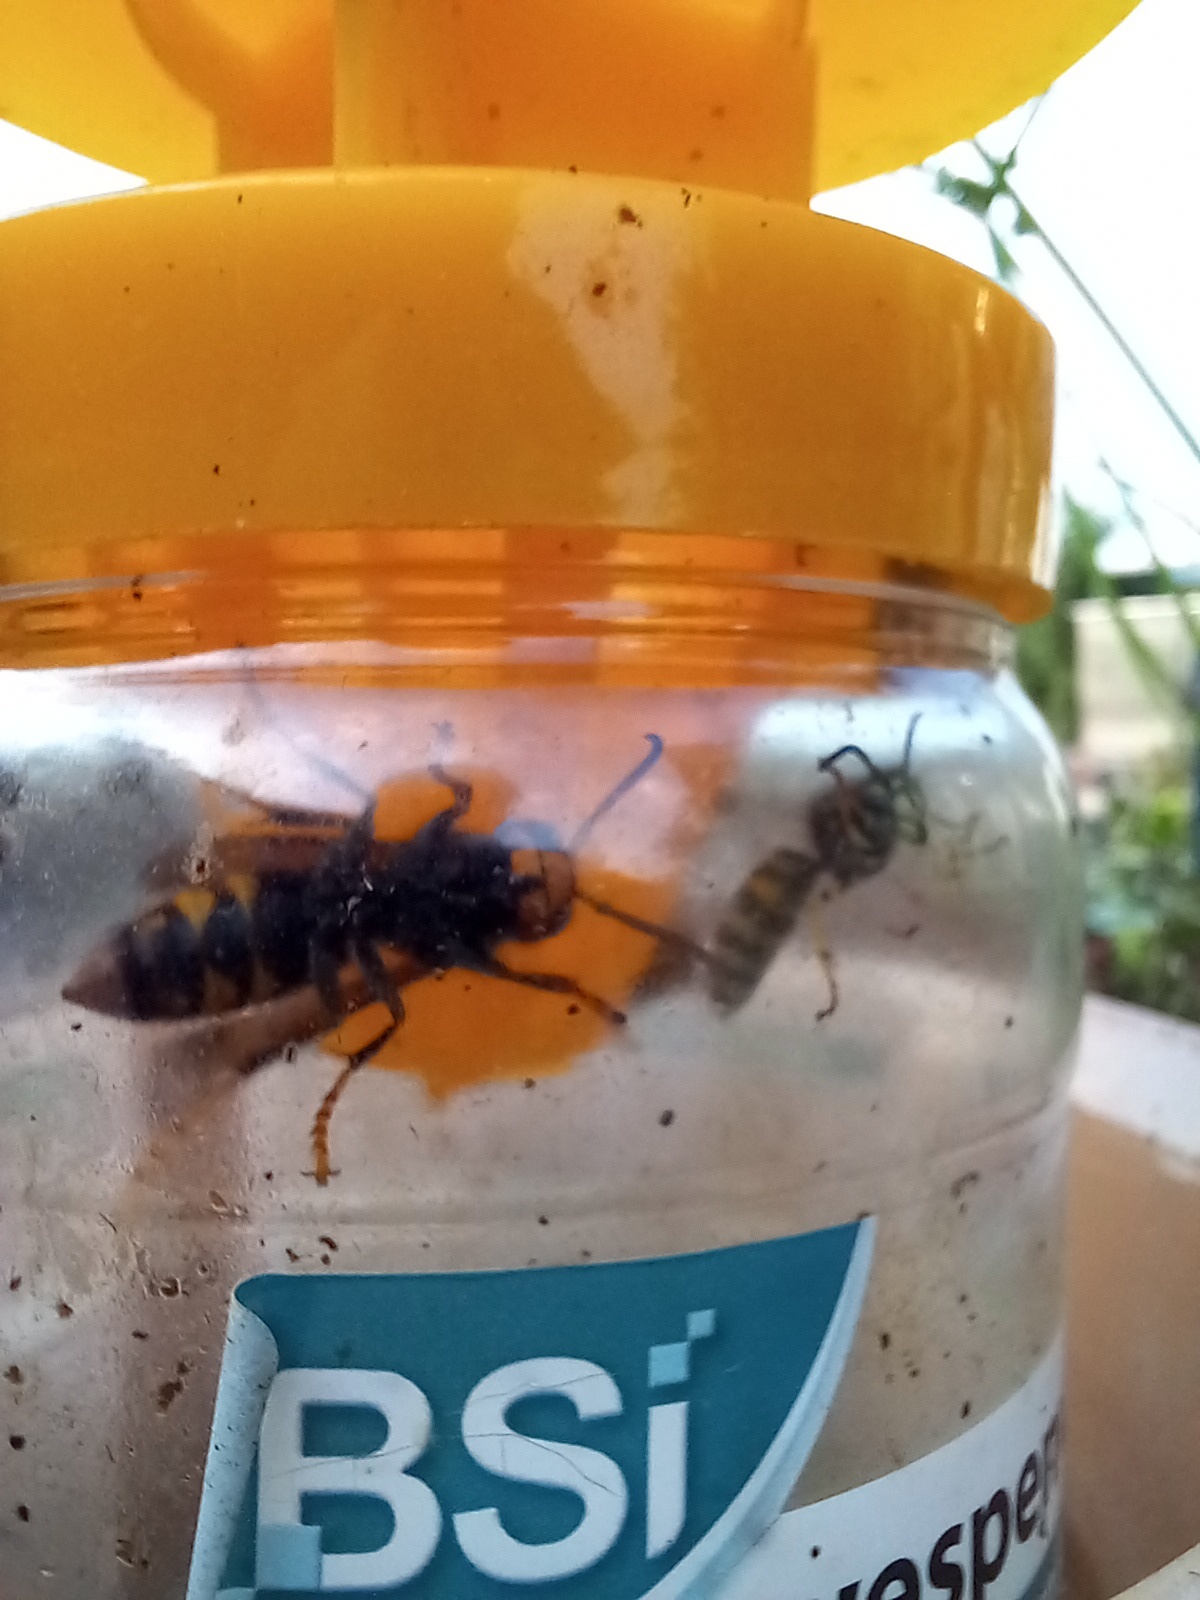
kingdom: Animalia
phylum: Arthropoda
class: Insecta
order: Hymenoptera
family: Vespidae
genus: Vespa
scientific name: Vespa velutina
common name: Asian hornet
